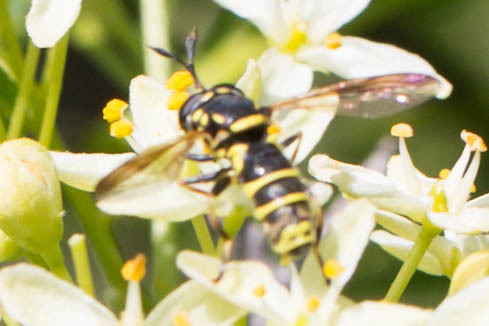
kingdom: Animalia
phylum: Arthropoda
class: Insecta
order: Diptera
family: Syrphidae
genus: Ceriana
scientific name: Ceriana tridens
